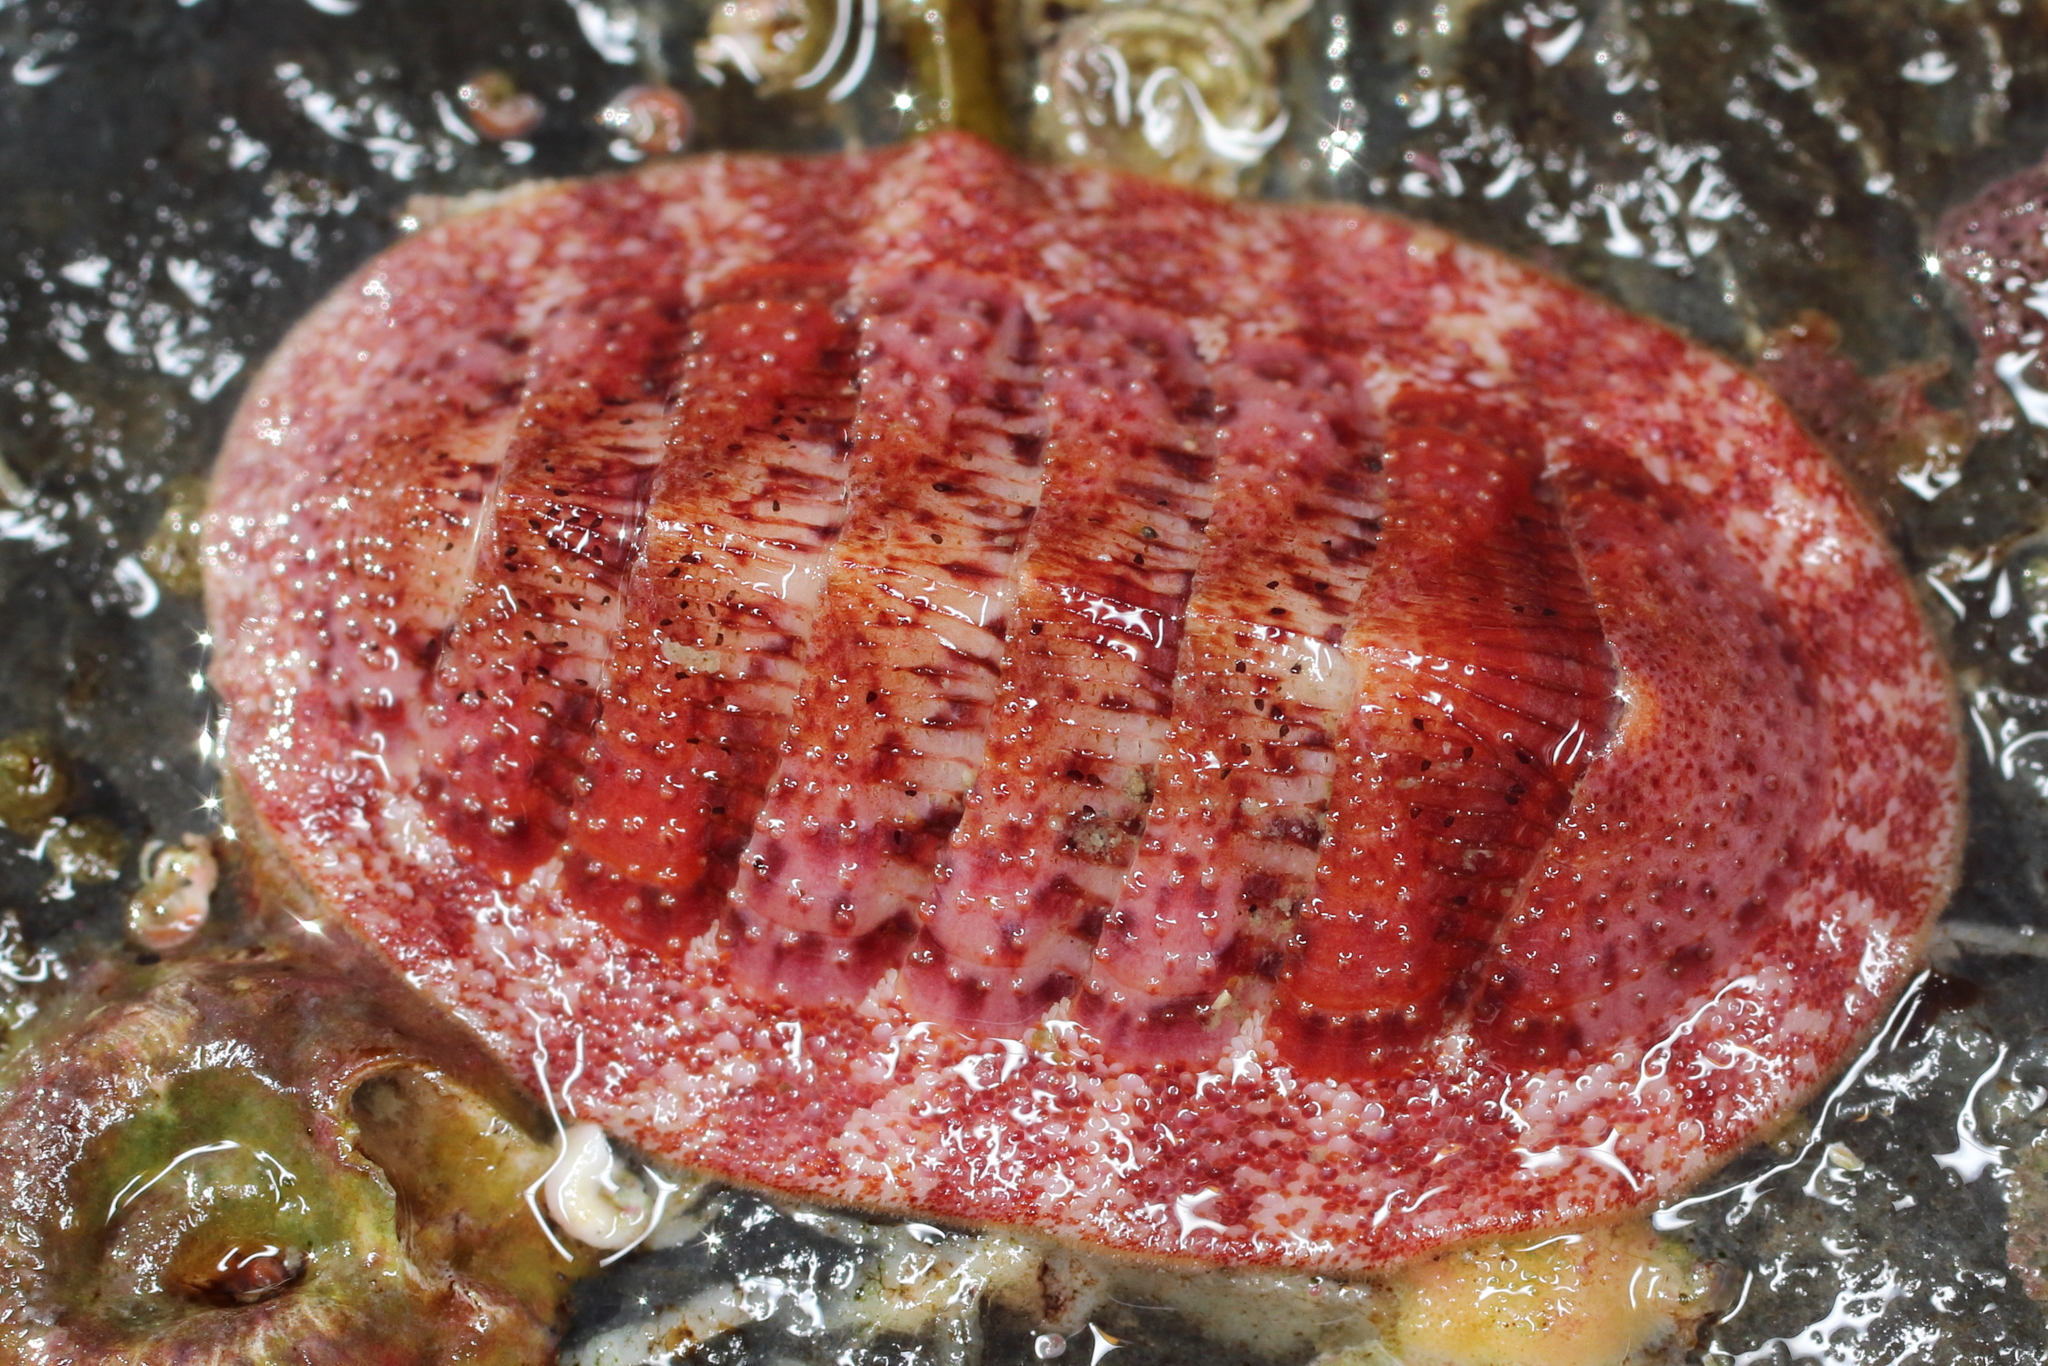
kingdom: Animalia
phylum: Mollusca
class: Polyplacophora
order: Chitonida
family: Ischnochitonidae
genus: Lepidozona
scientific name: Lepidozona mertensii
